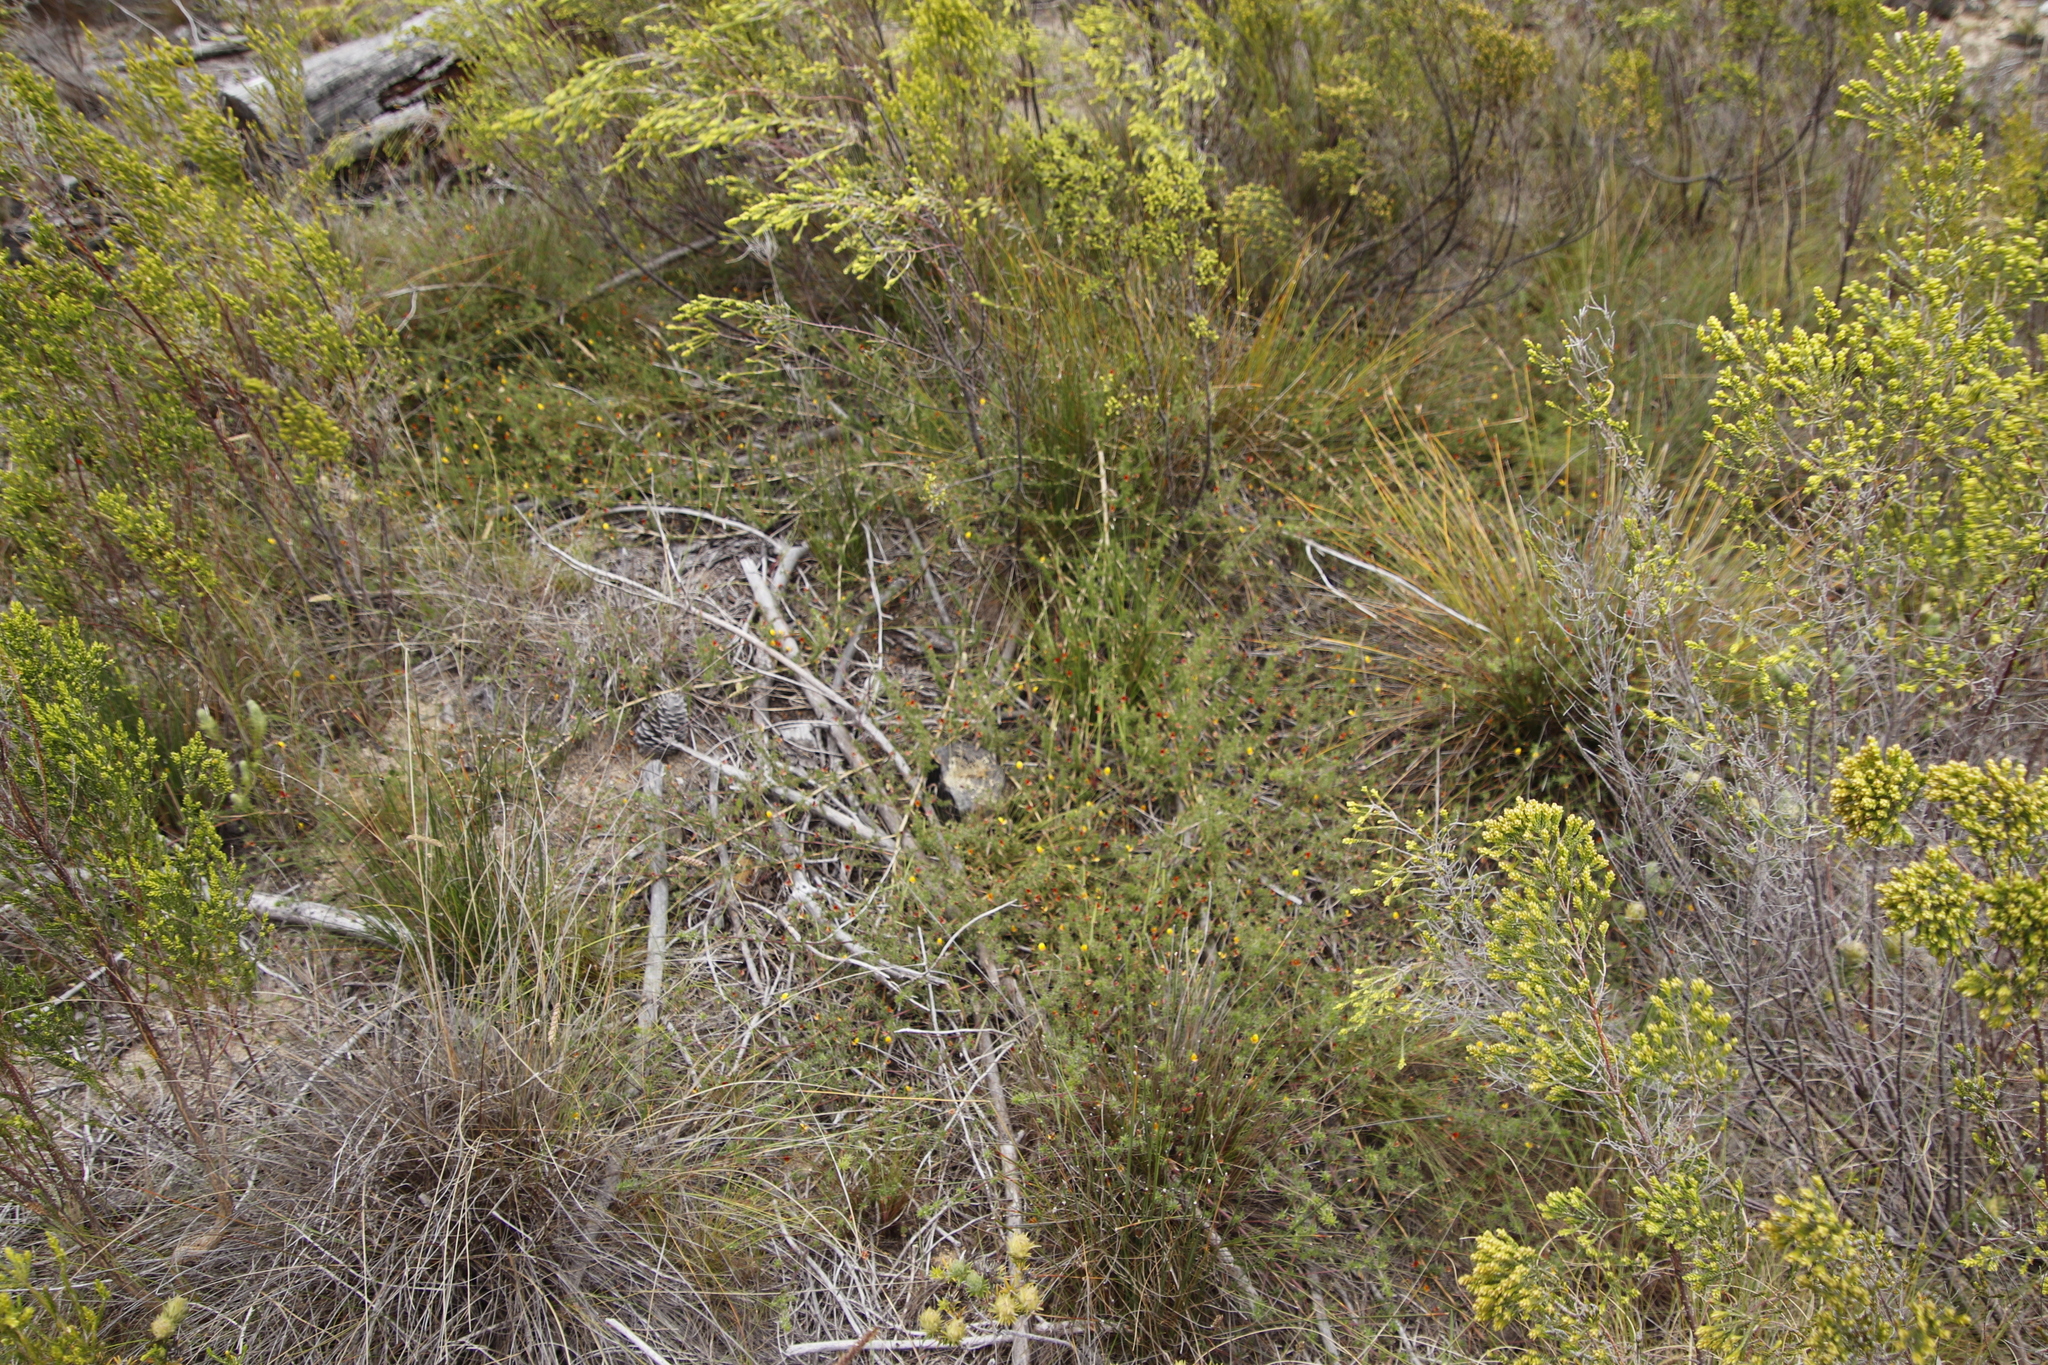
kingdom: Plantae
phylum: Tracheophyta
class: Magnoliopsida
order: Fabales
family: Fabaceae
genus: Aspalathus
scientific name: Aspalathus retroflexa
